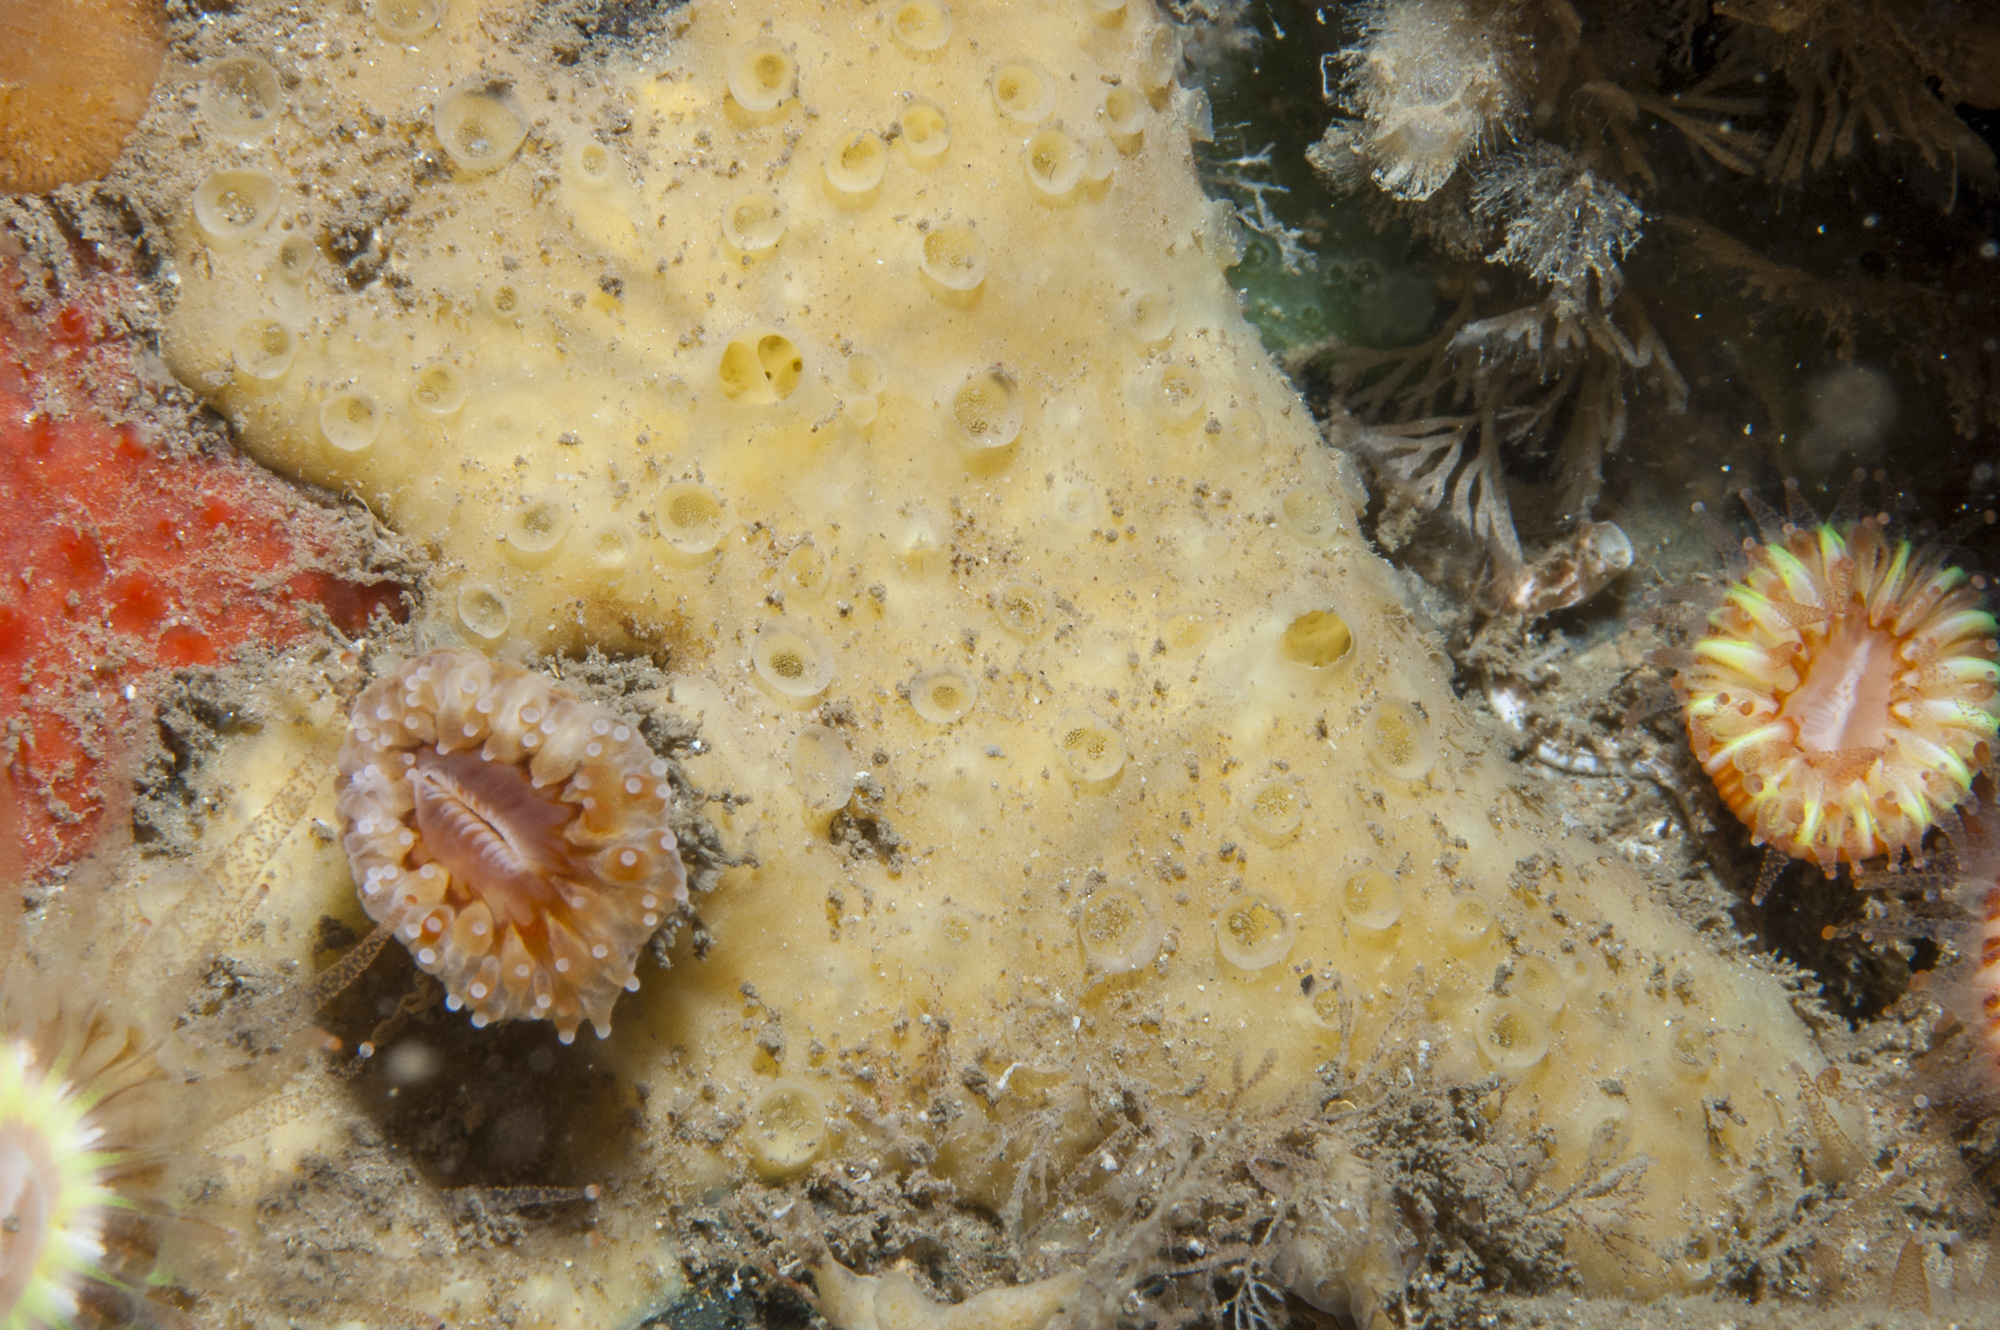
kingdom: Animalia
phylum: Porifera
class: Demospongiae
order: Poecilosclerida
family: Coelosphaeridae
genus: Lissodendoryx
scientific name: Lissodendoryx jenjonesae
